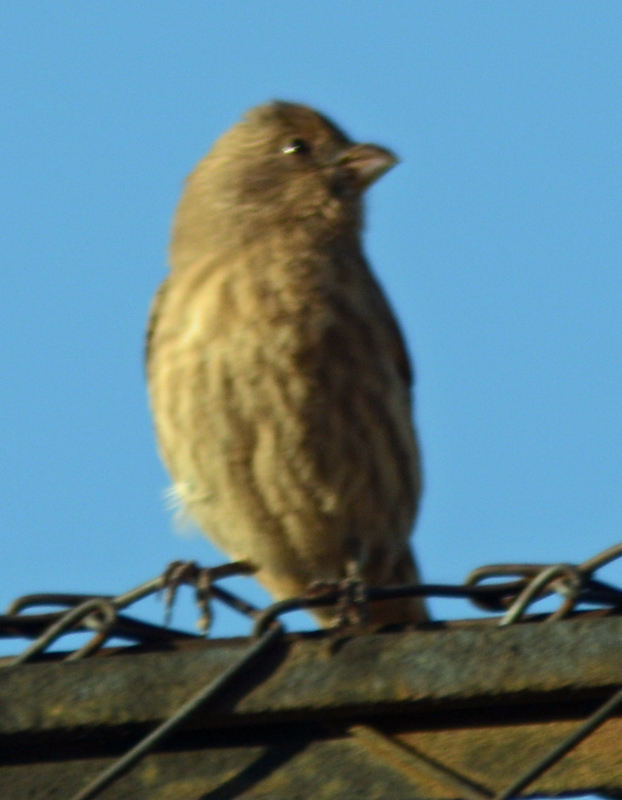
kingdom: Animalia
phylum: Chordata
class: Aves
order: Passeriformes
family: Fringillidae
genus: Haemorhous
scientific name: Haemorhous mexicanus
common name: House finch
